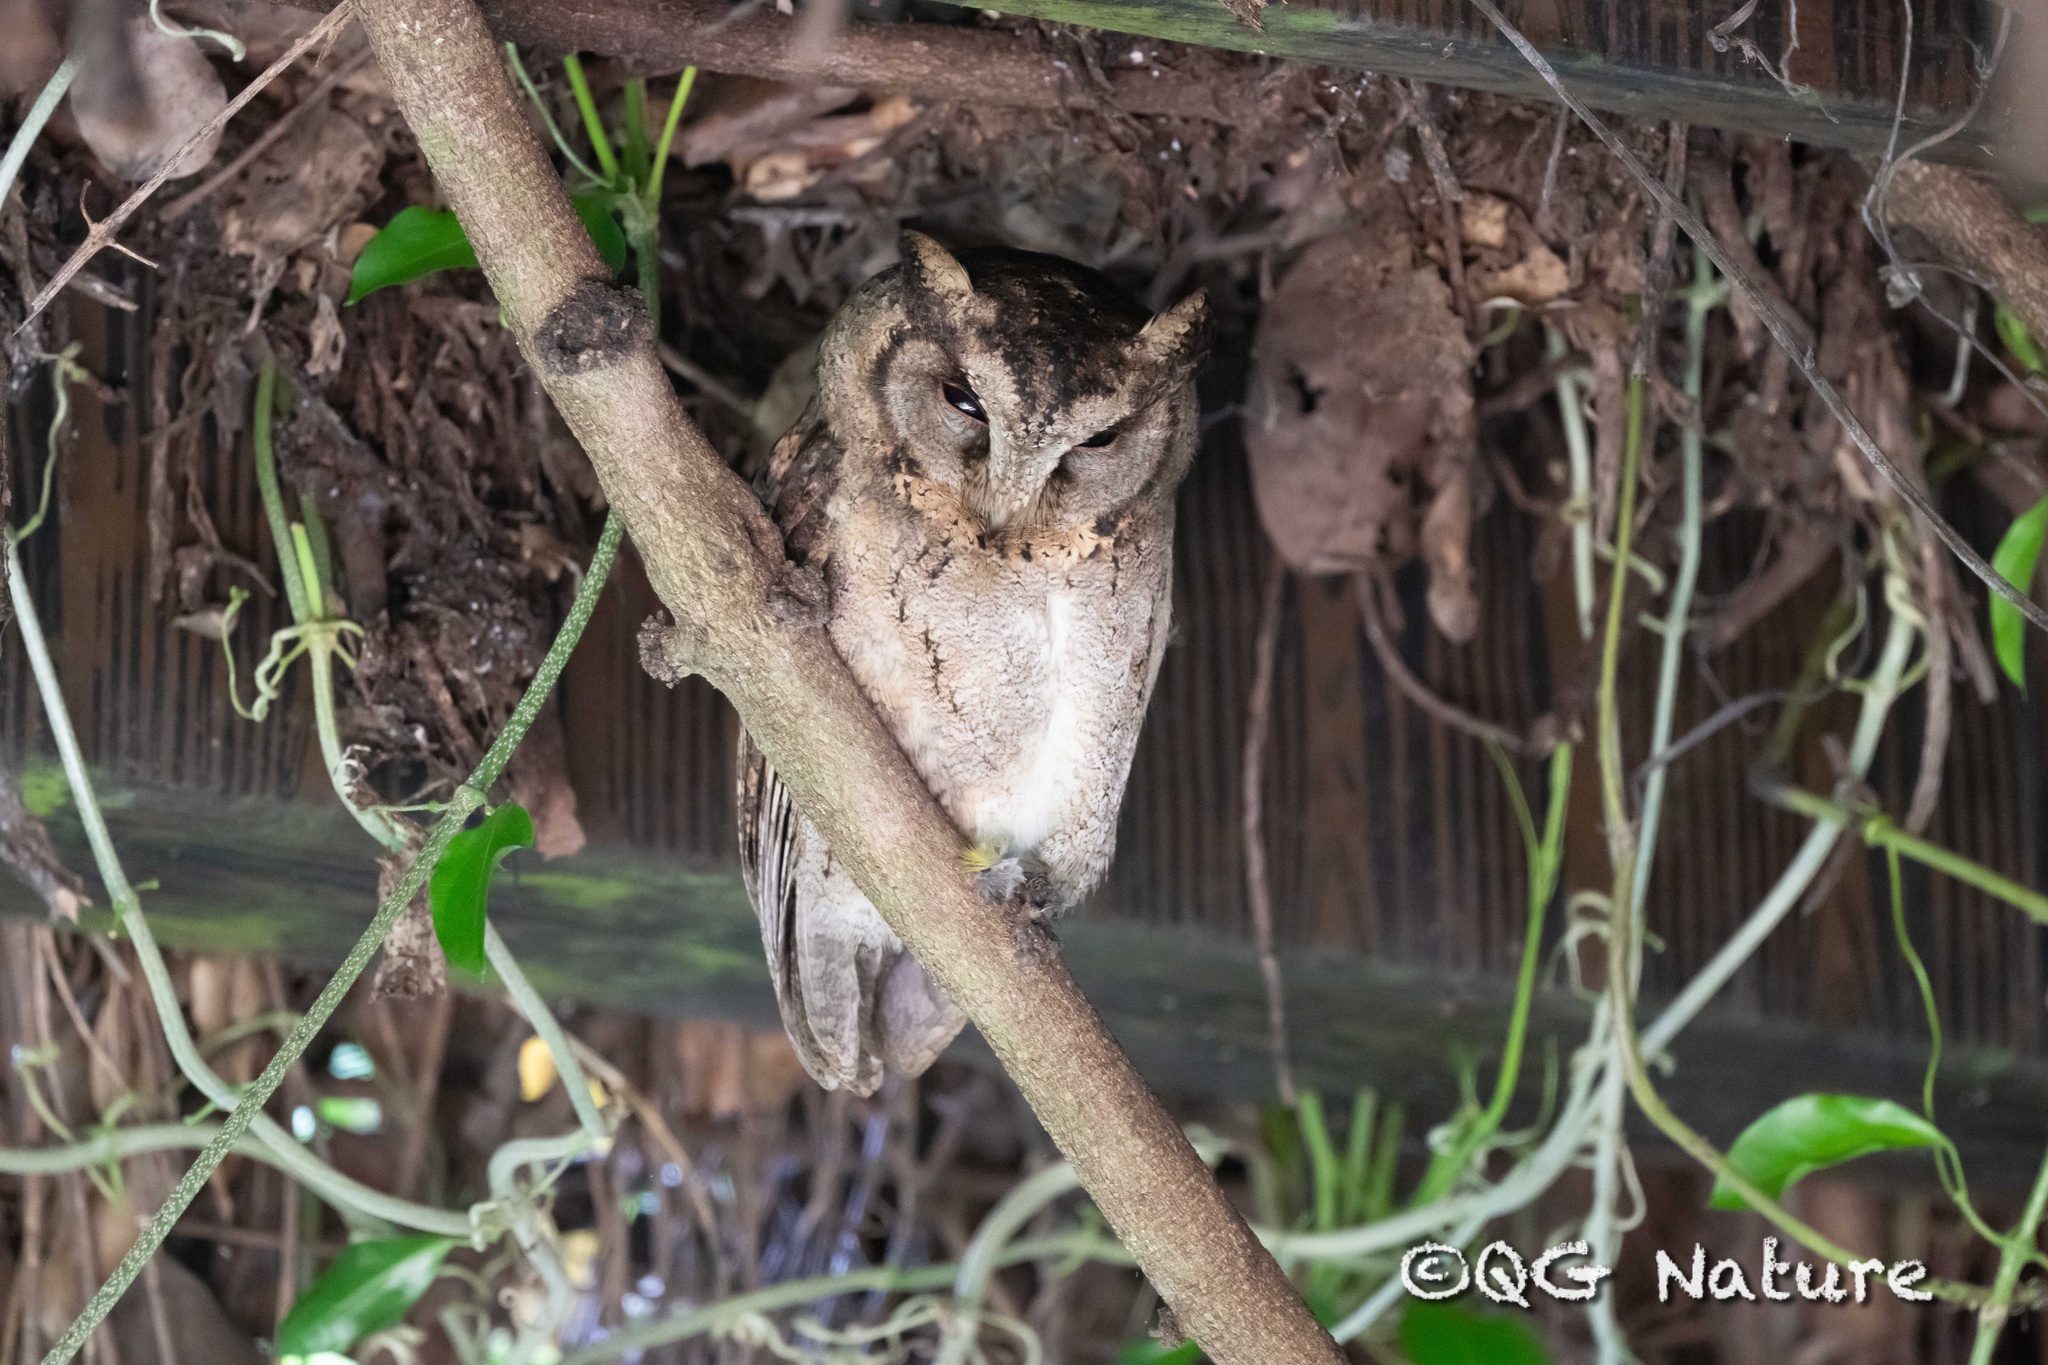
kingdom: Animalia
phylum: Chordata
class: Aves
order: Strigiformes
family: Strigidae
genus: Otus
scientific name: Otus lettia
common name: Collared scops owl
